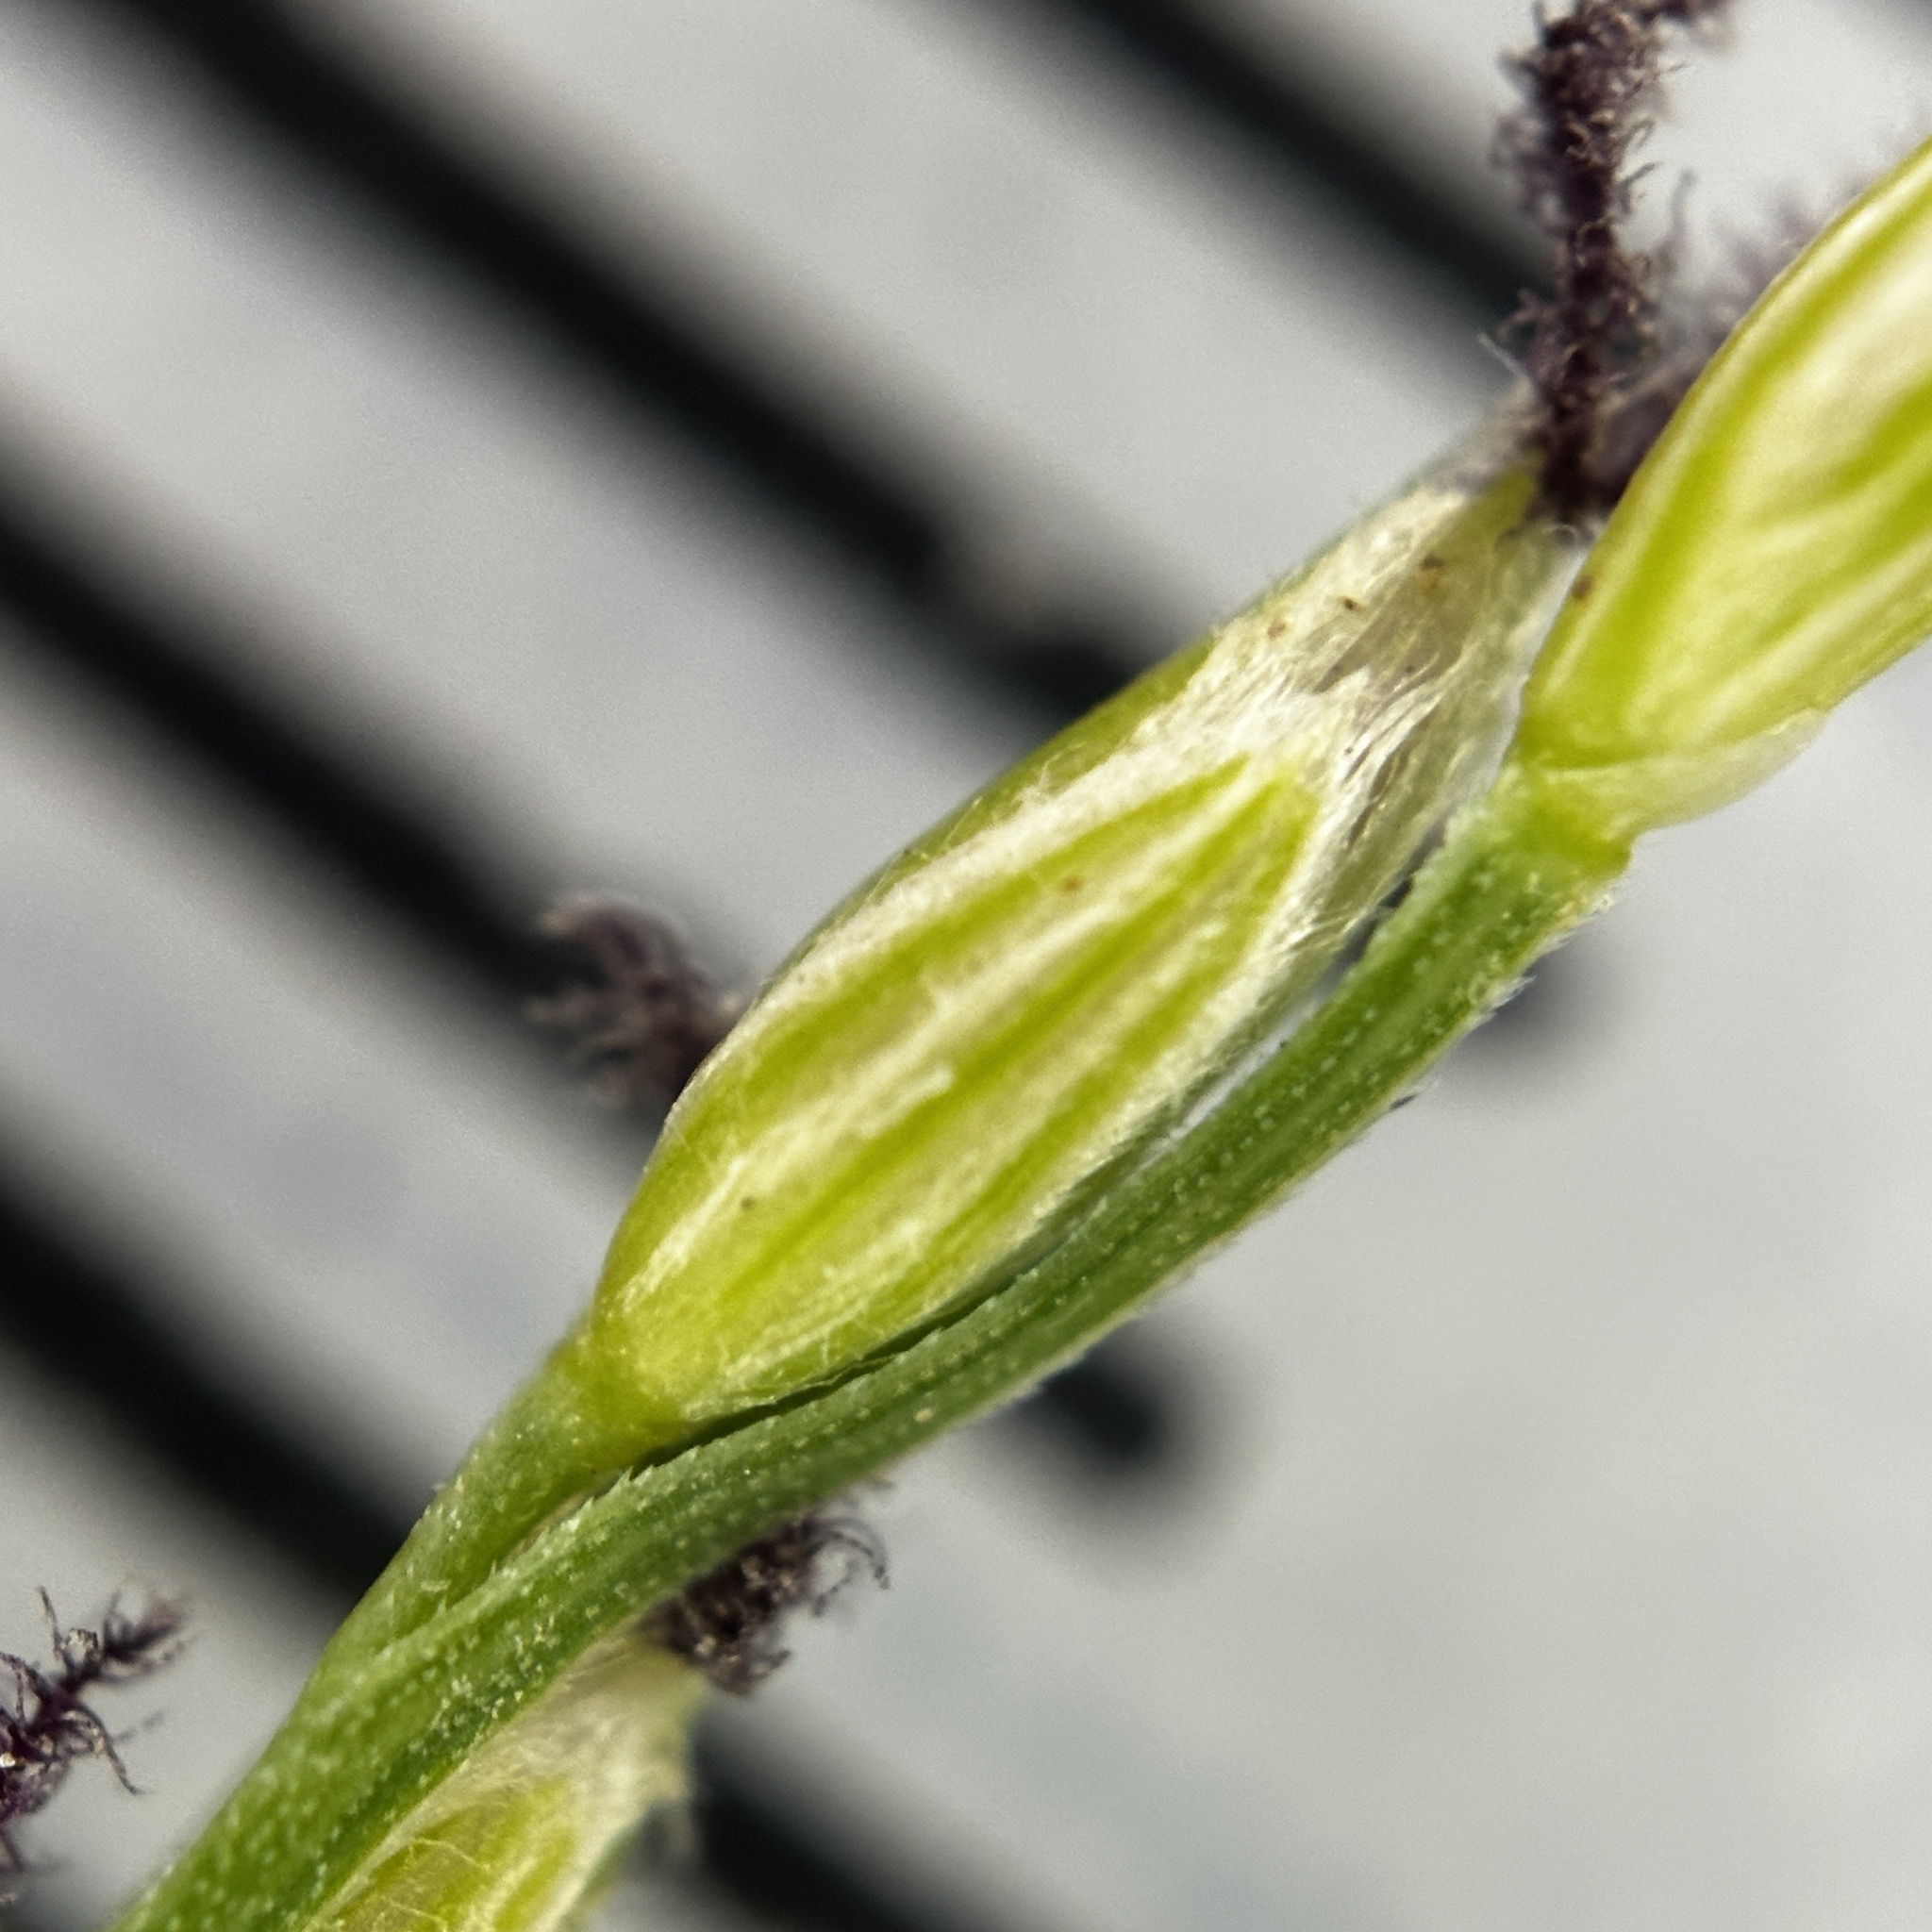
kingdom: Plantae
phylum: Tracheophyta
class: Liliopsida
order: Poales
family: Poaceae
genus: Digitaria
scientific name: Digitaria didactyla
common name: Blue couch
